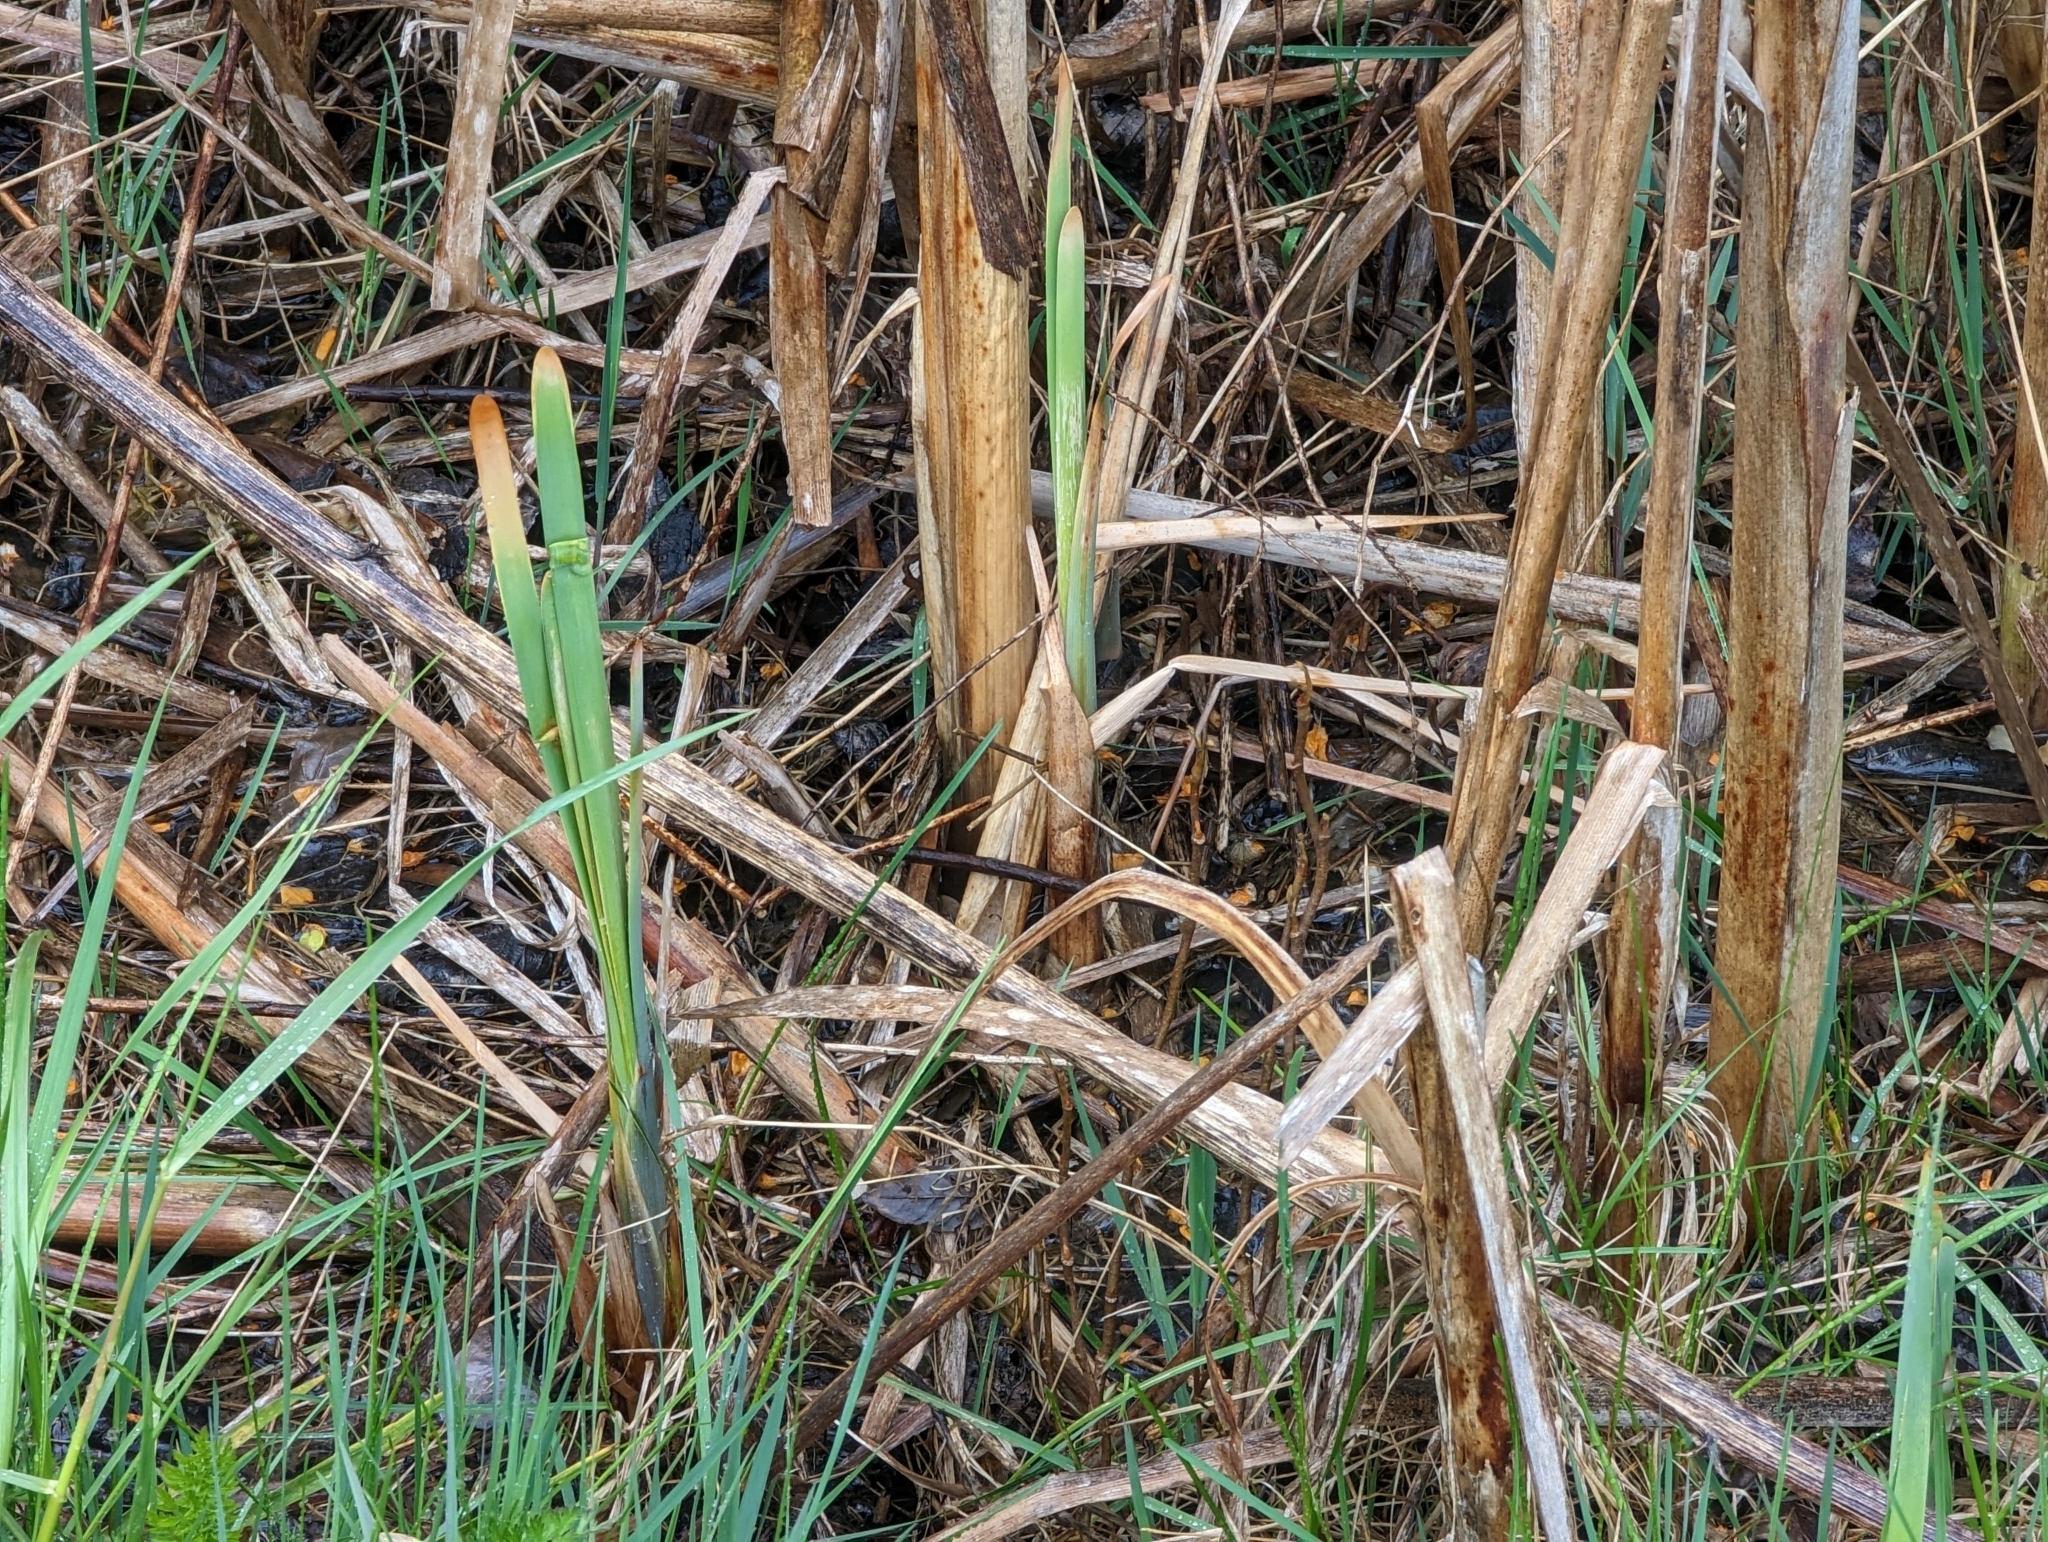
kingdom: Plantae
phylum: Tracheophyta
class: Liliopsida
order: Poales
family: Typhaceae
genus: Typha
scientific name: Typha latifolia
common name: Broadleaf cattail
